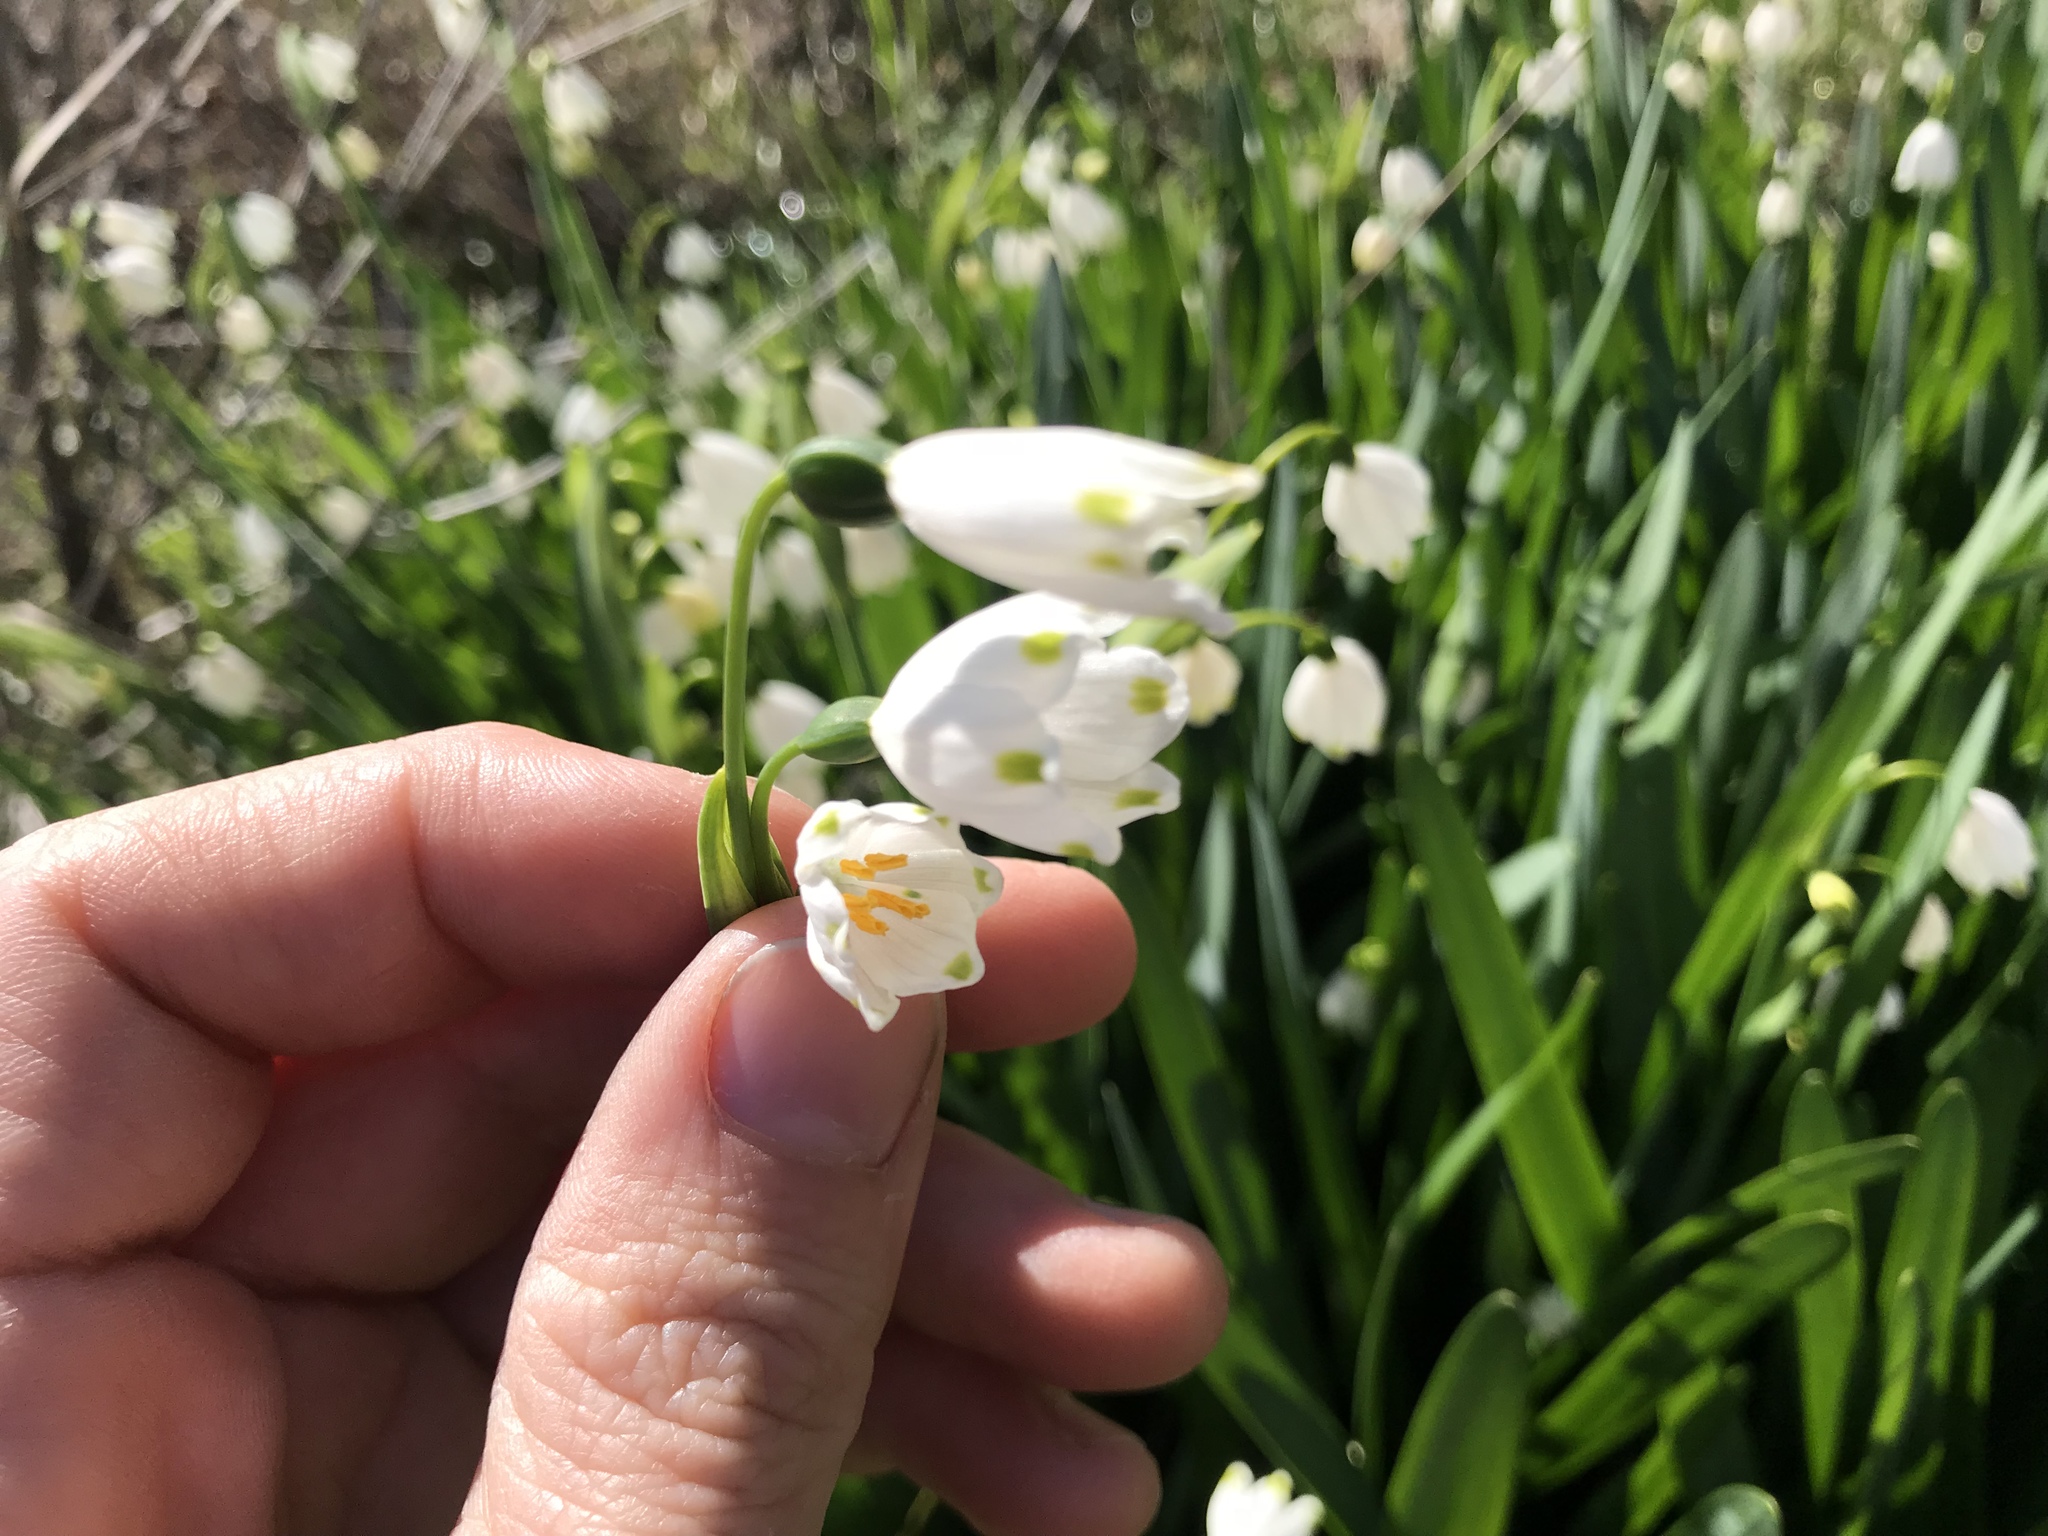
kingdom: Plantae
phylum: Tracheophyta
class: Liliopsida
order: Asparagales
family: Amaryllidaceae
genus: Leucojum
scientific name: Leucojum aestivum
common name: Summer snowflake
